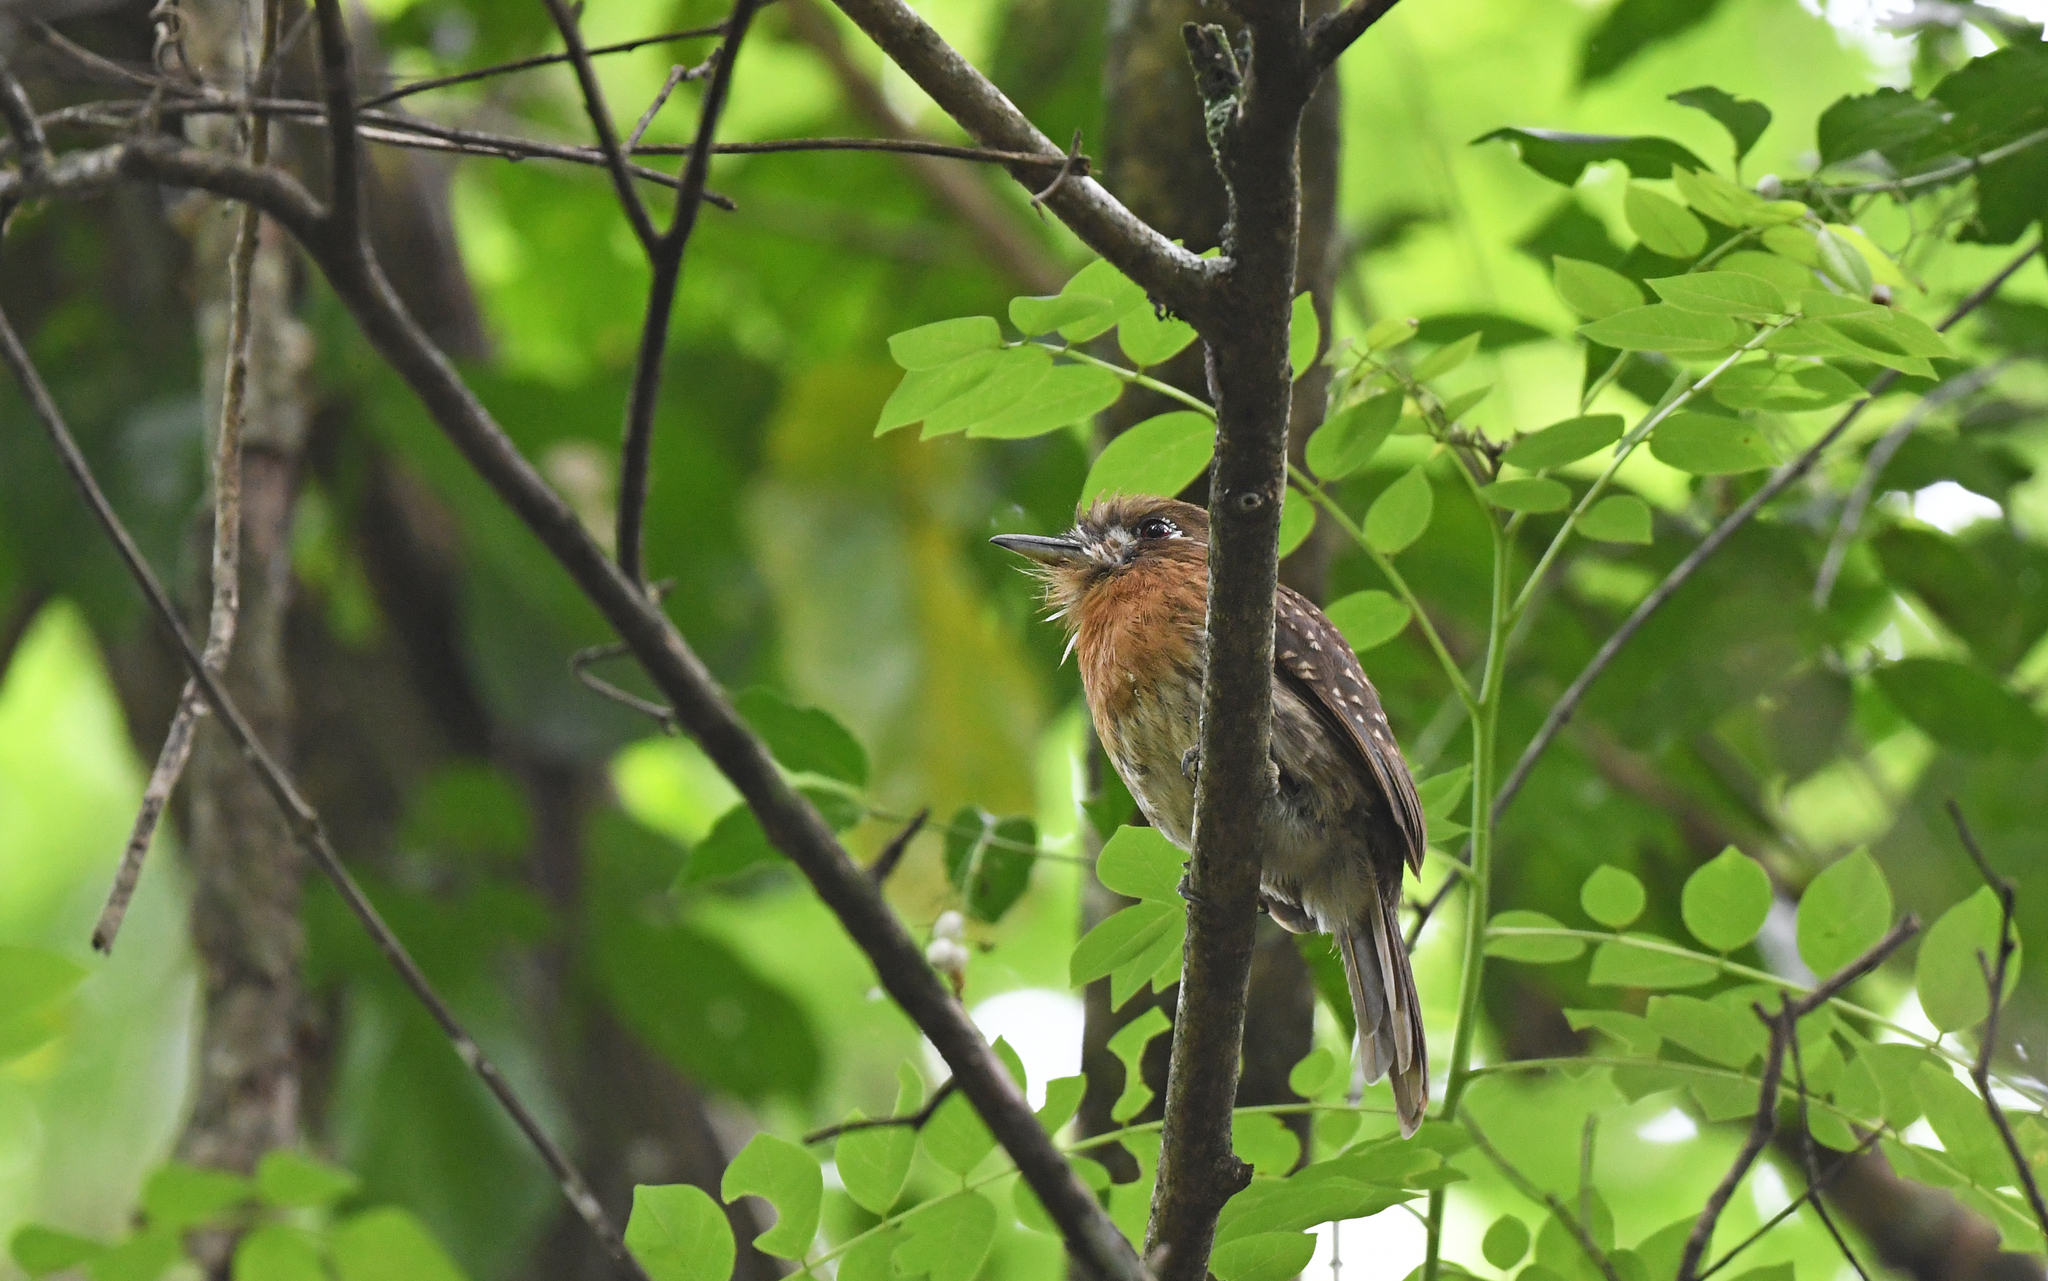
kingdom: Animalia
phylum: Chordata
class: Aves
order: Piciformes
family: Bucconidae
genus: Malacoptila
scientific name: Malacoptila mystacalis
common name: Moustached puffbird
